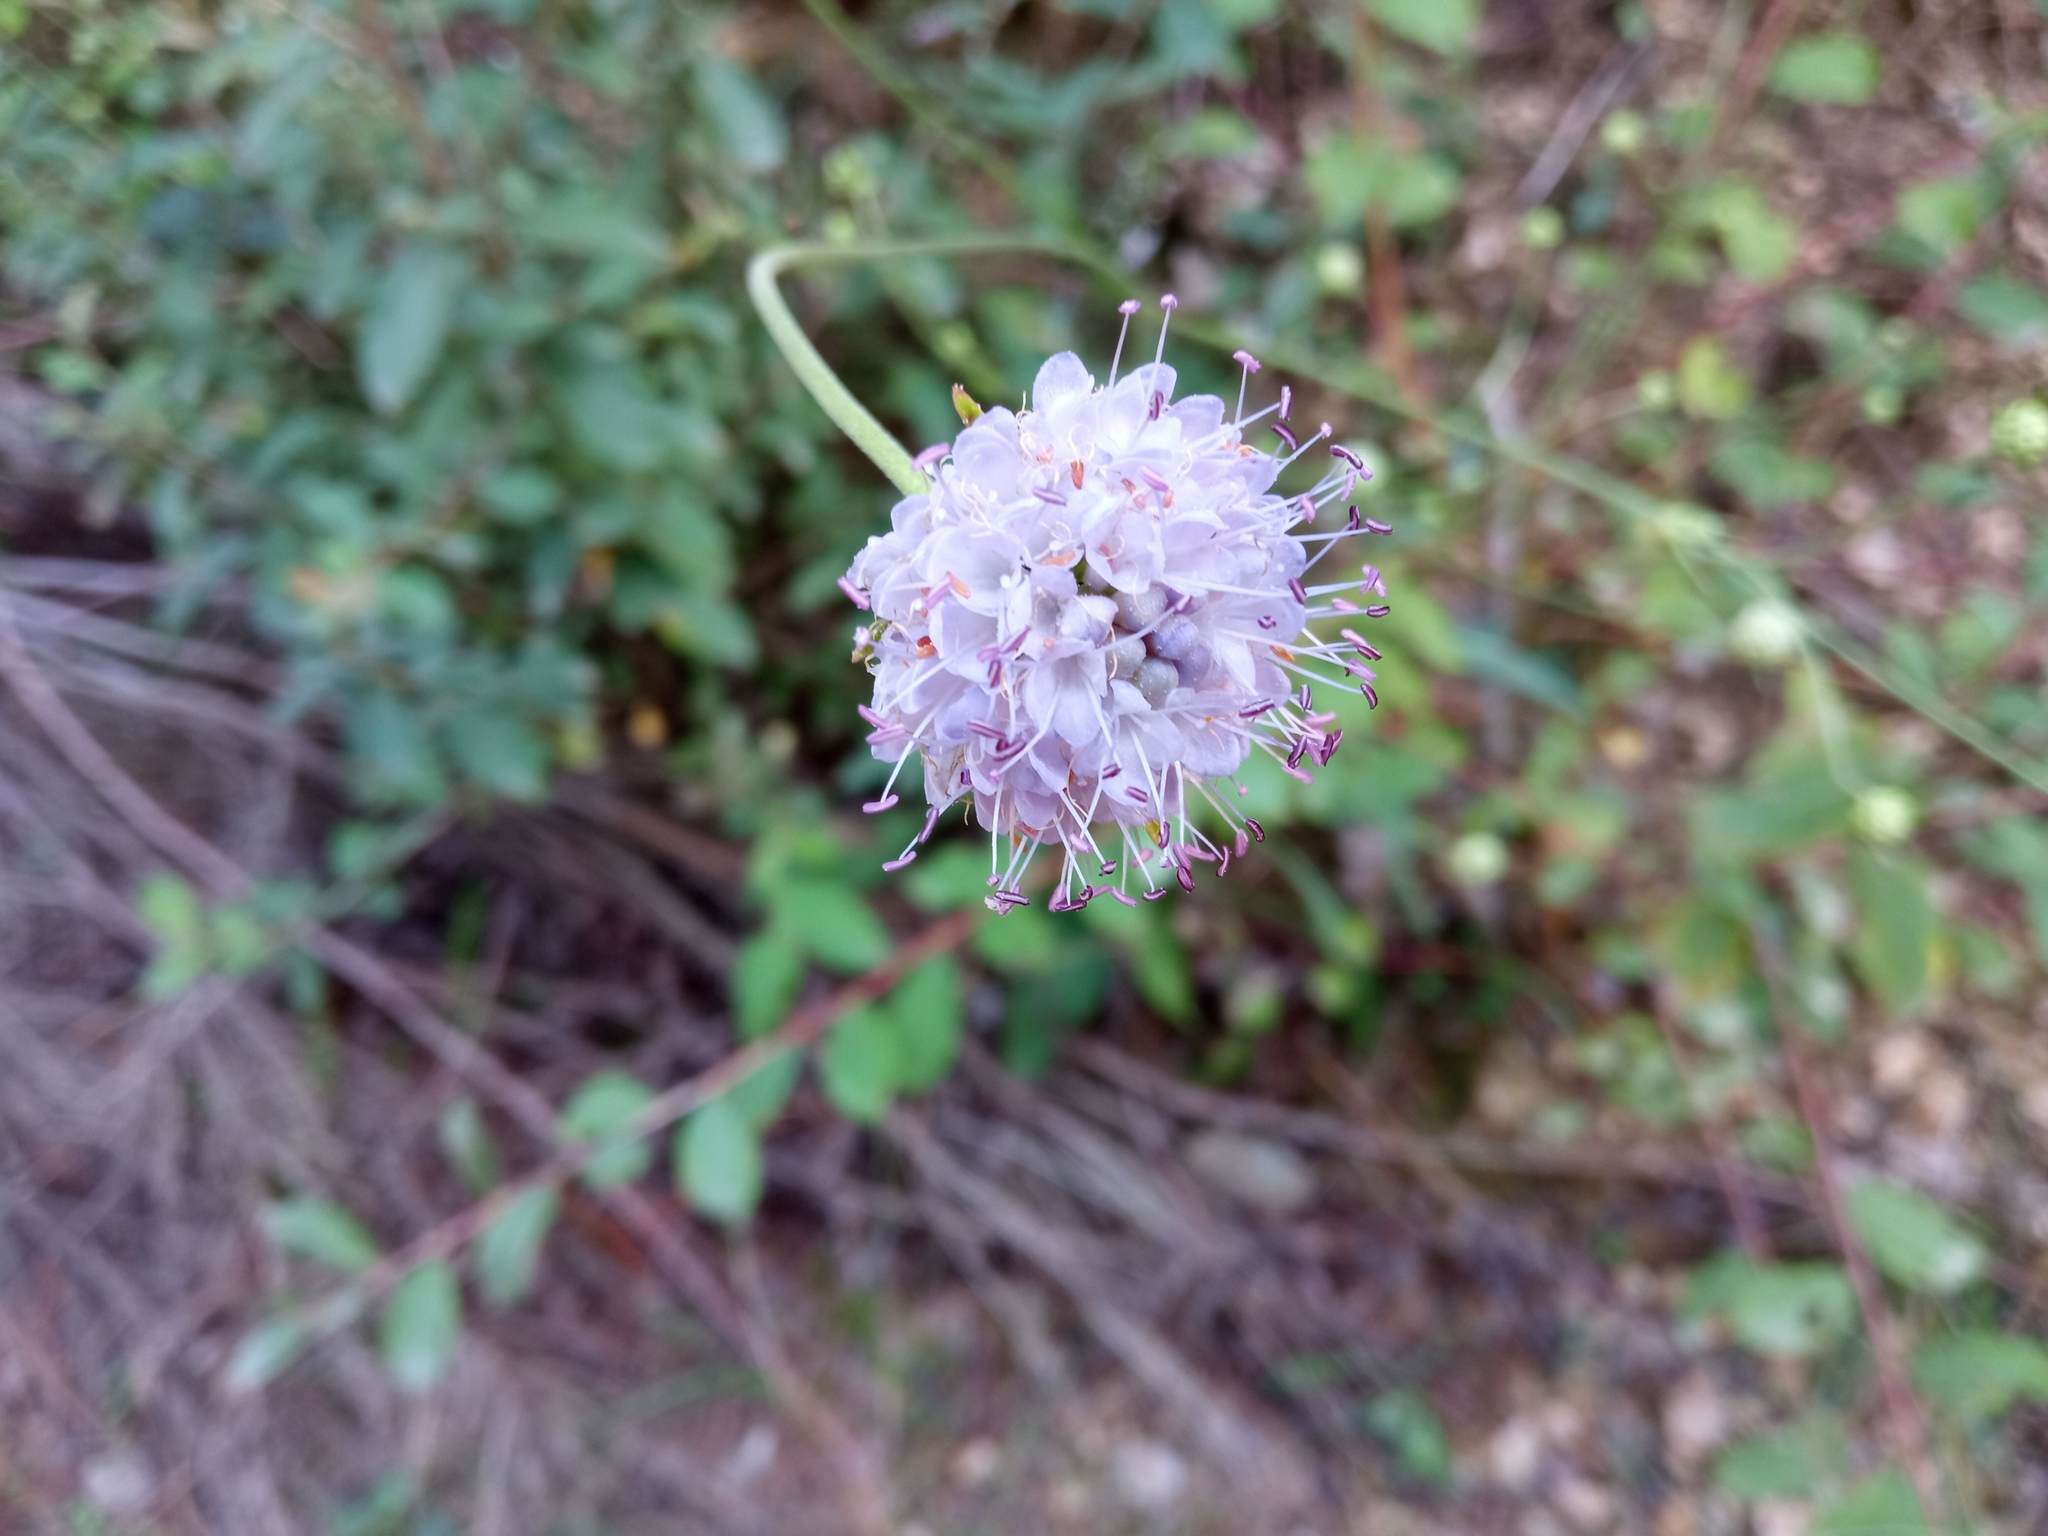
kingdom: Plantae
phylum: Tracheophyta
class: Magnoliopsida
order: Dipsacales
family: Caprifoliaceae
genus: Succisa
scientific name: Succisa pratensis
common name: Devil's-bit
